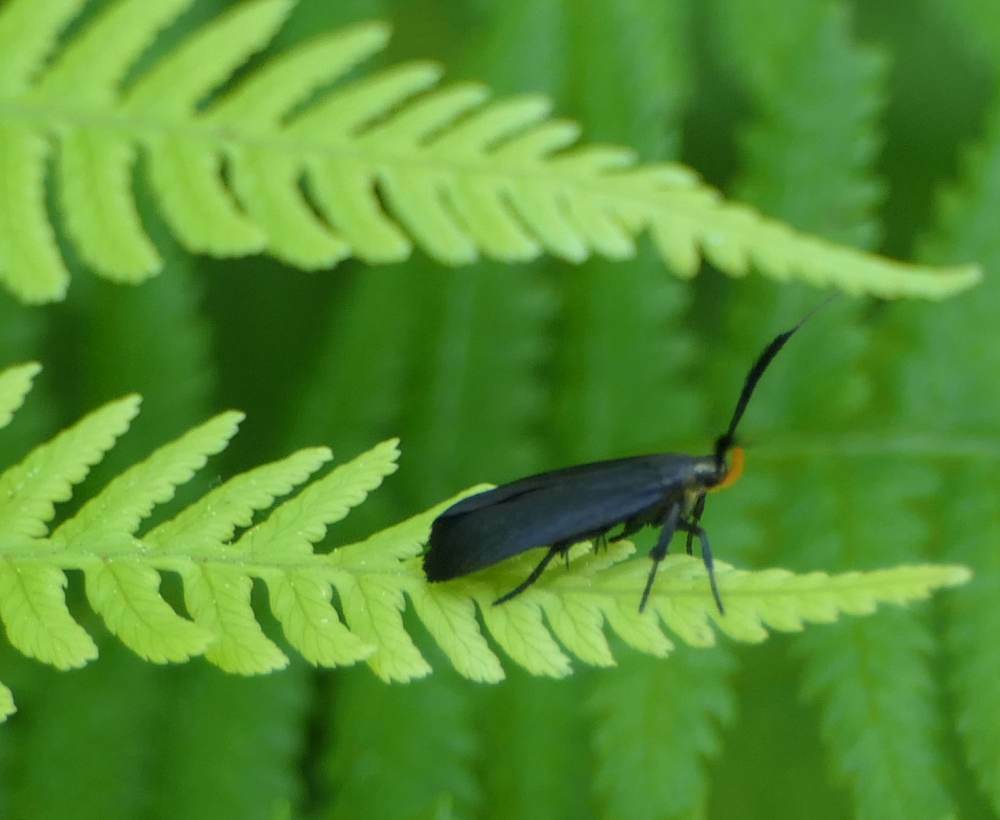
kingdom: Animalia
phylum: Arthropoda
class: Insecta
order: Lepidoptera
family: Gelechiidae
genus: Dichomeris
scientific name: Dichomeris nonstrigella
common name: Little devil moth
